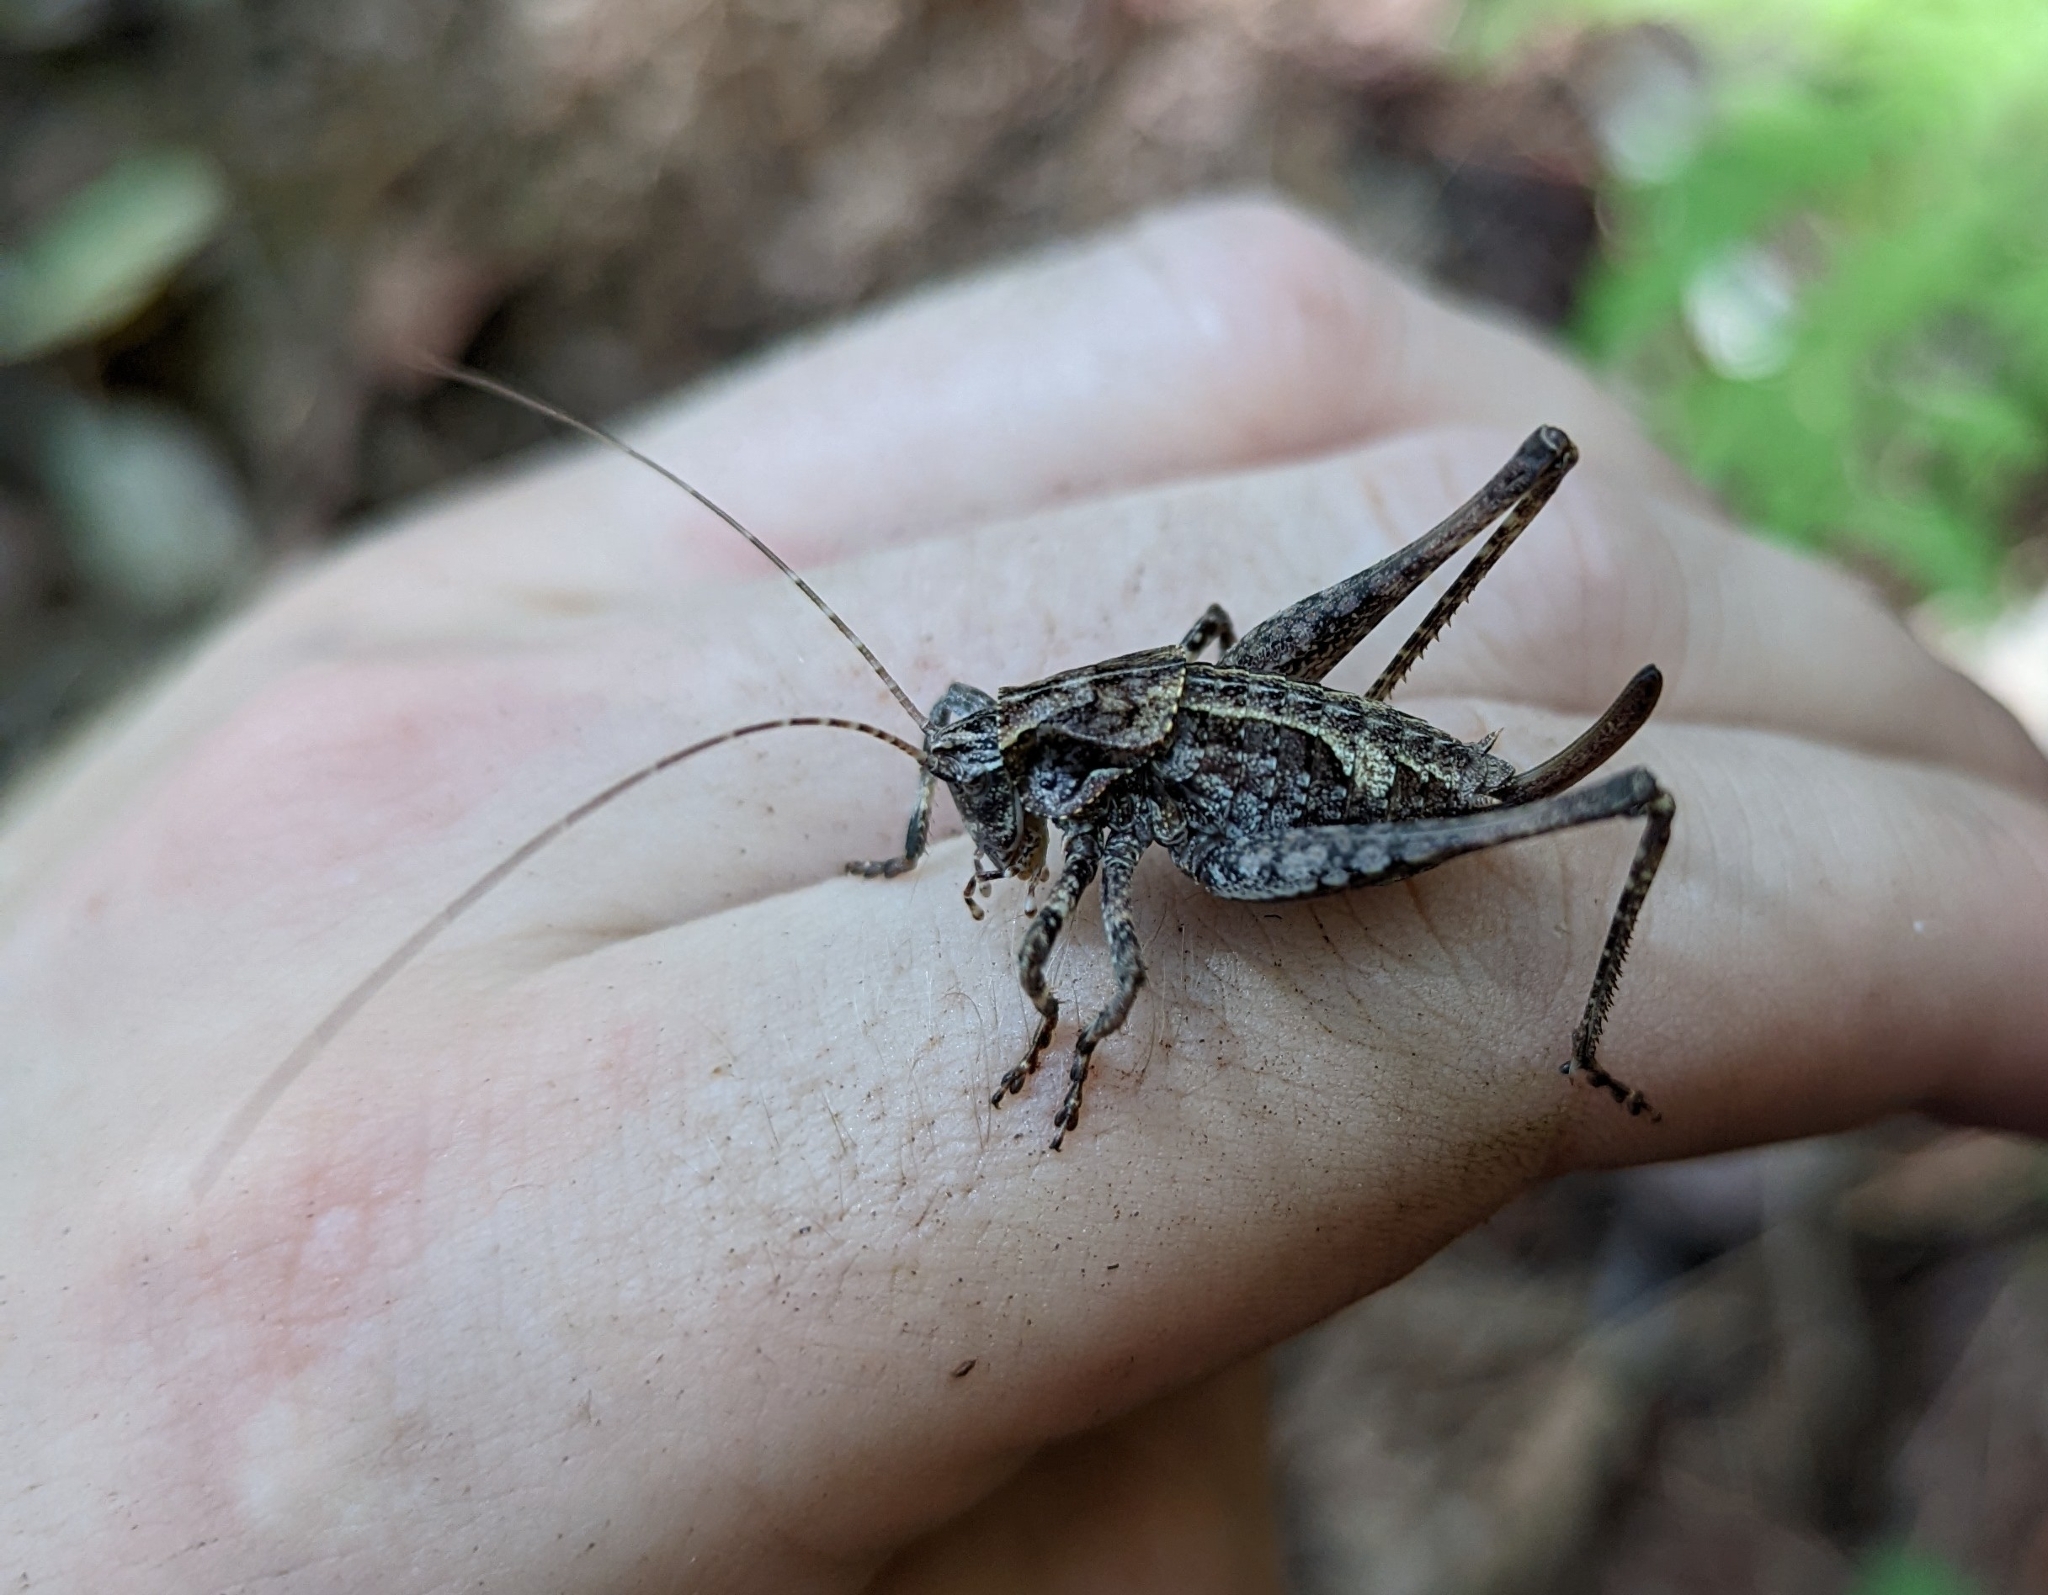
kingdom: Animalia
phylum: Arthropoda
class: Insecta
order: Orthoptera
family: Tettigoniidae
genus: Neduba
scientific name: Neduba steindachneri
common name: Steindachner's shieldback
